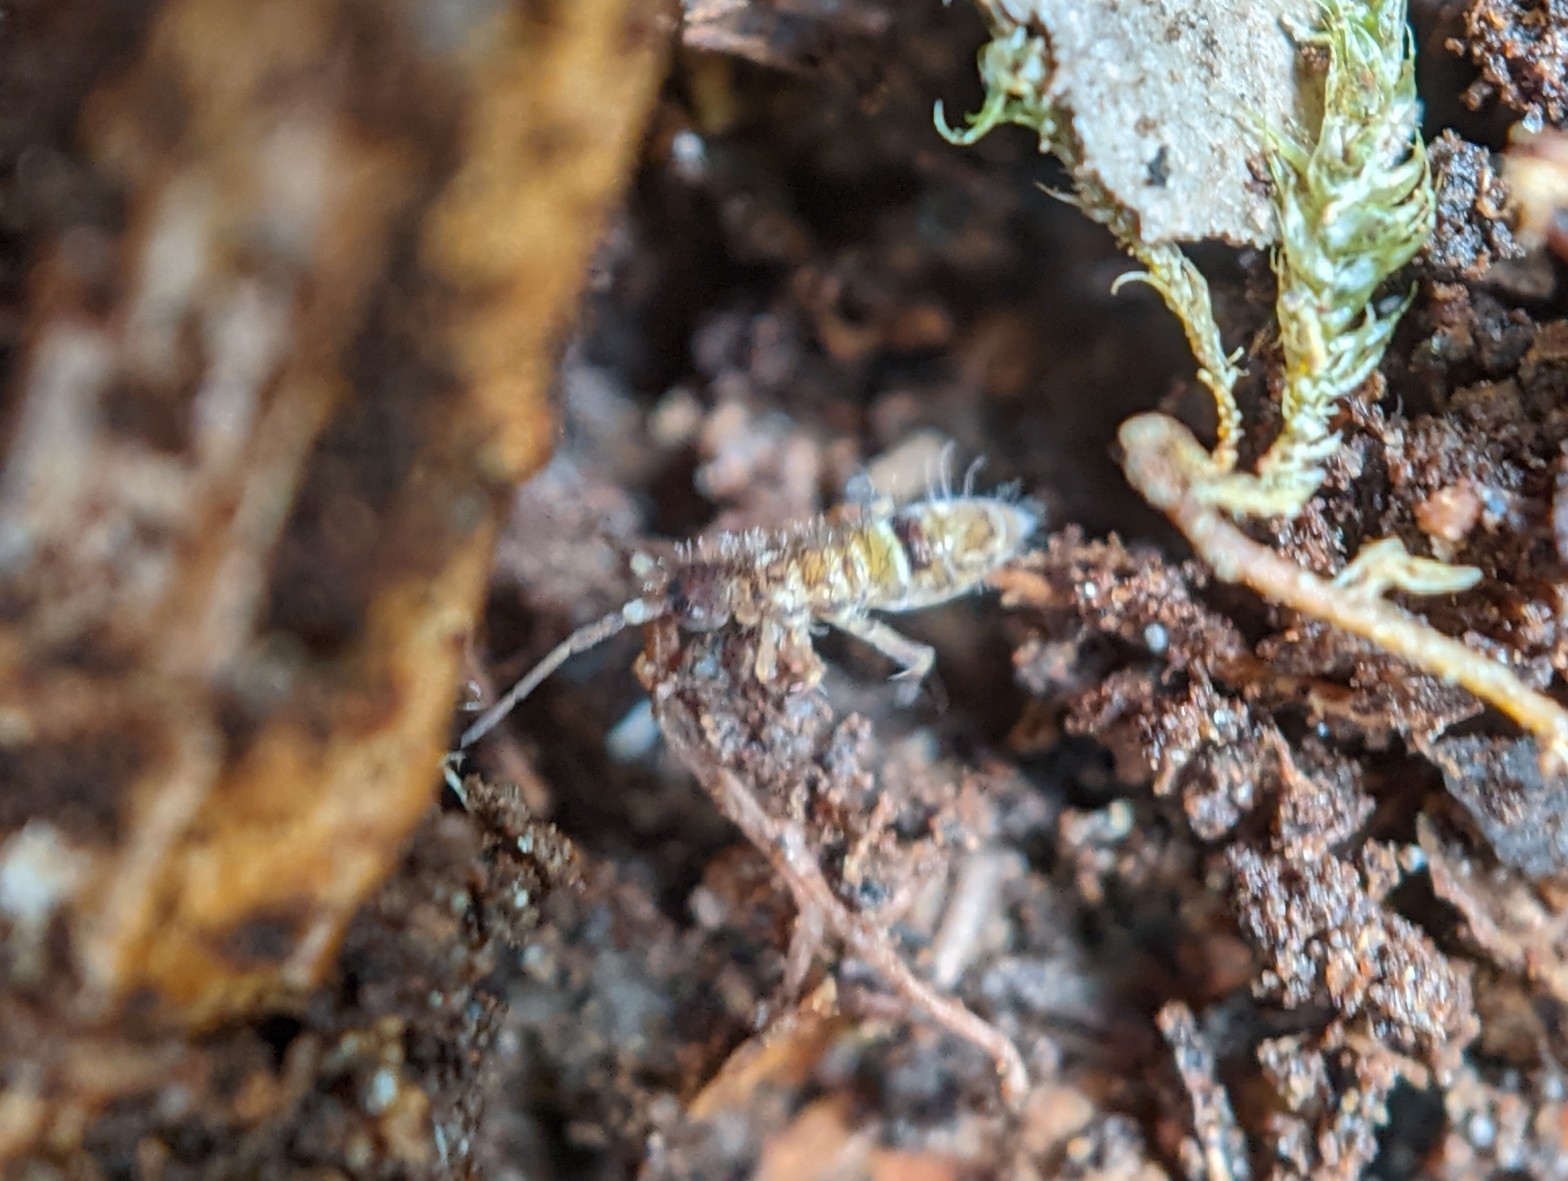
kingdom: Animalia
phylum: Arthropoda
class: Collembola
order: Entomobryomorpha
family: Orchesellidae
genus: Orchesella
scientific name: Orchesella cincta
